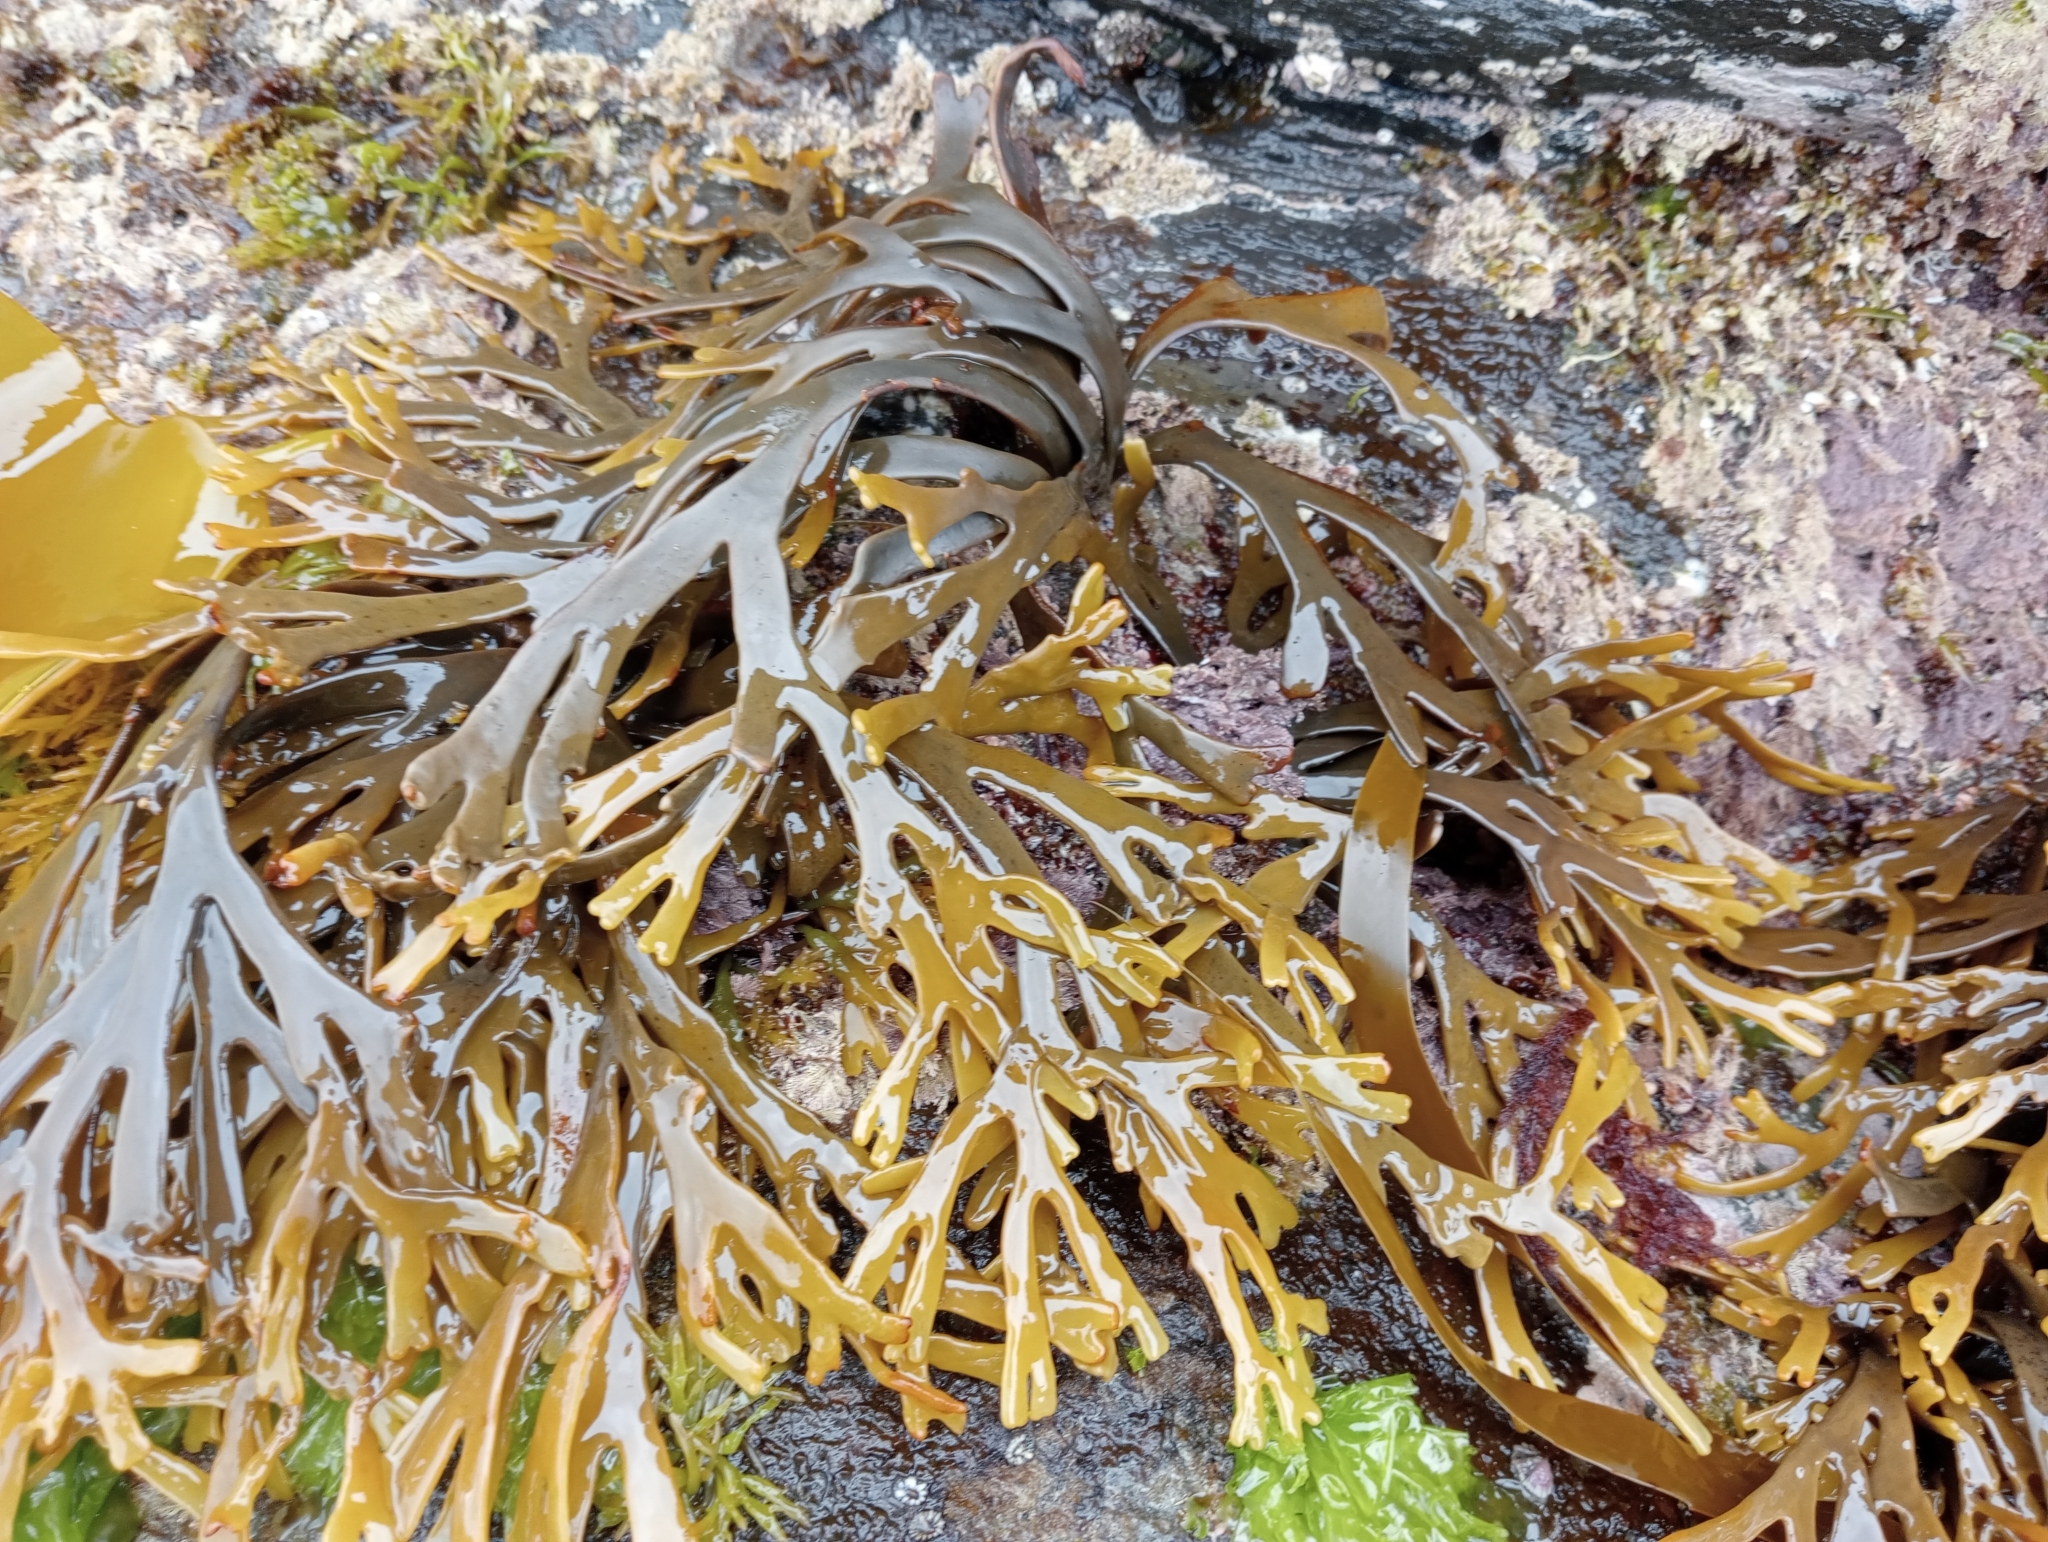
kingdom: Chromista
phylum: Ochrophyta
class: Phaeophyceae
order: Fucales
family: Xiphophoraceae
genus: Xiphophora
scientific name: Xiphophora gladiata
